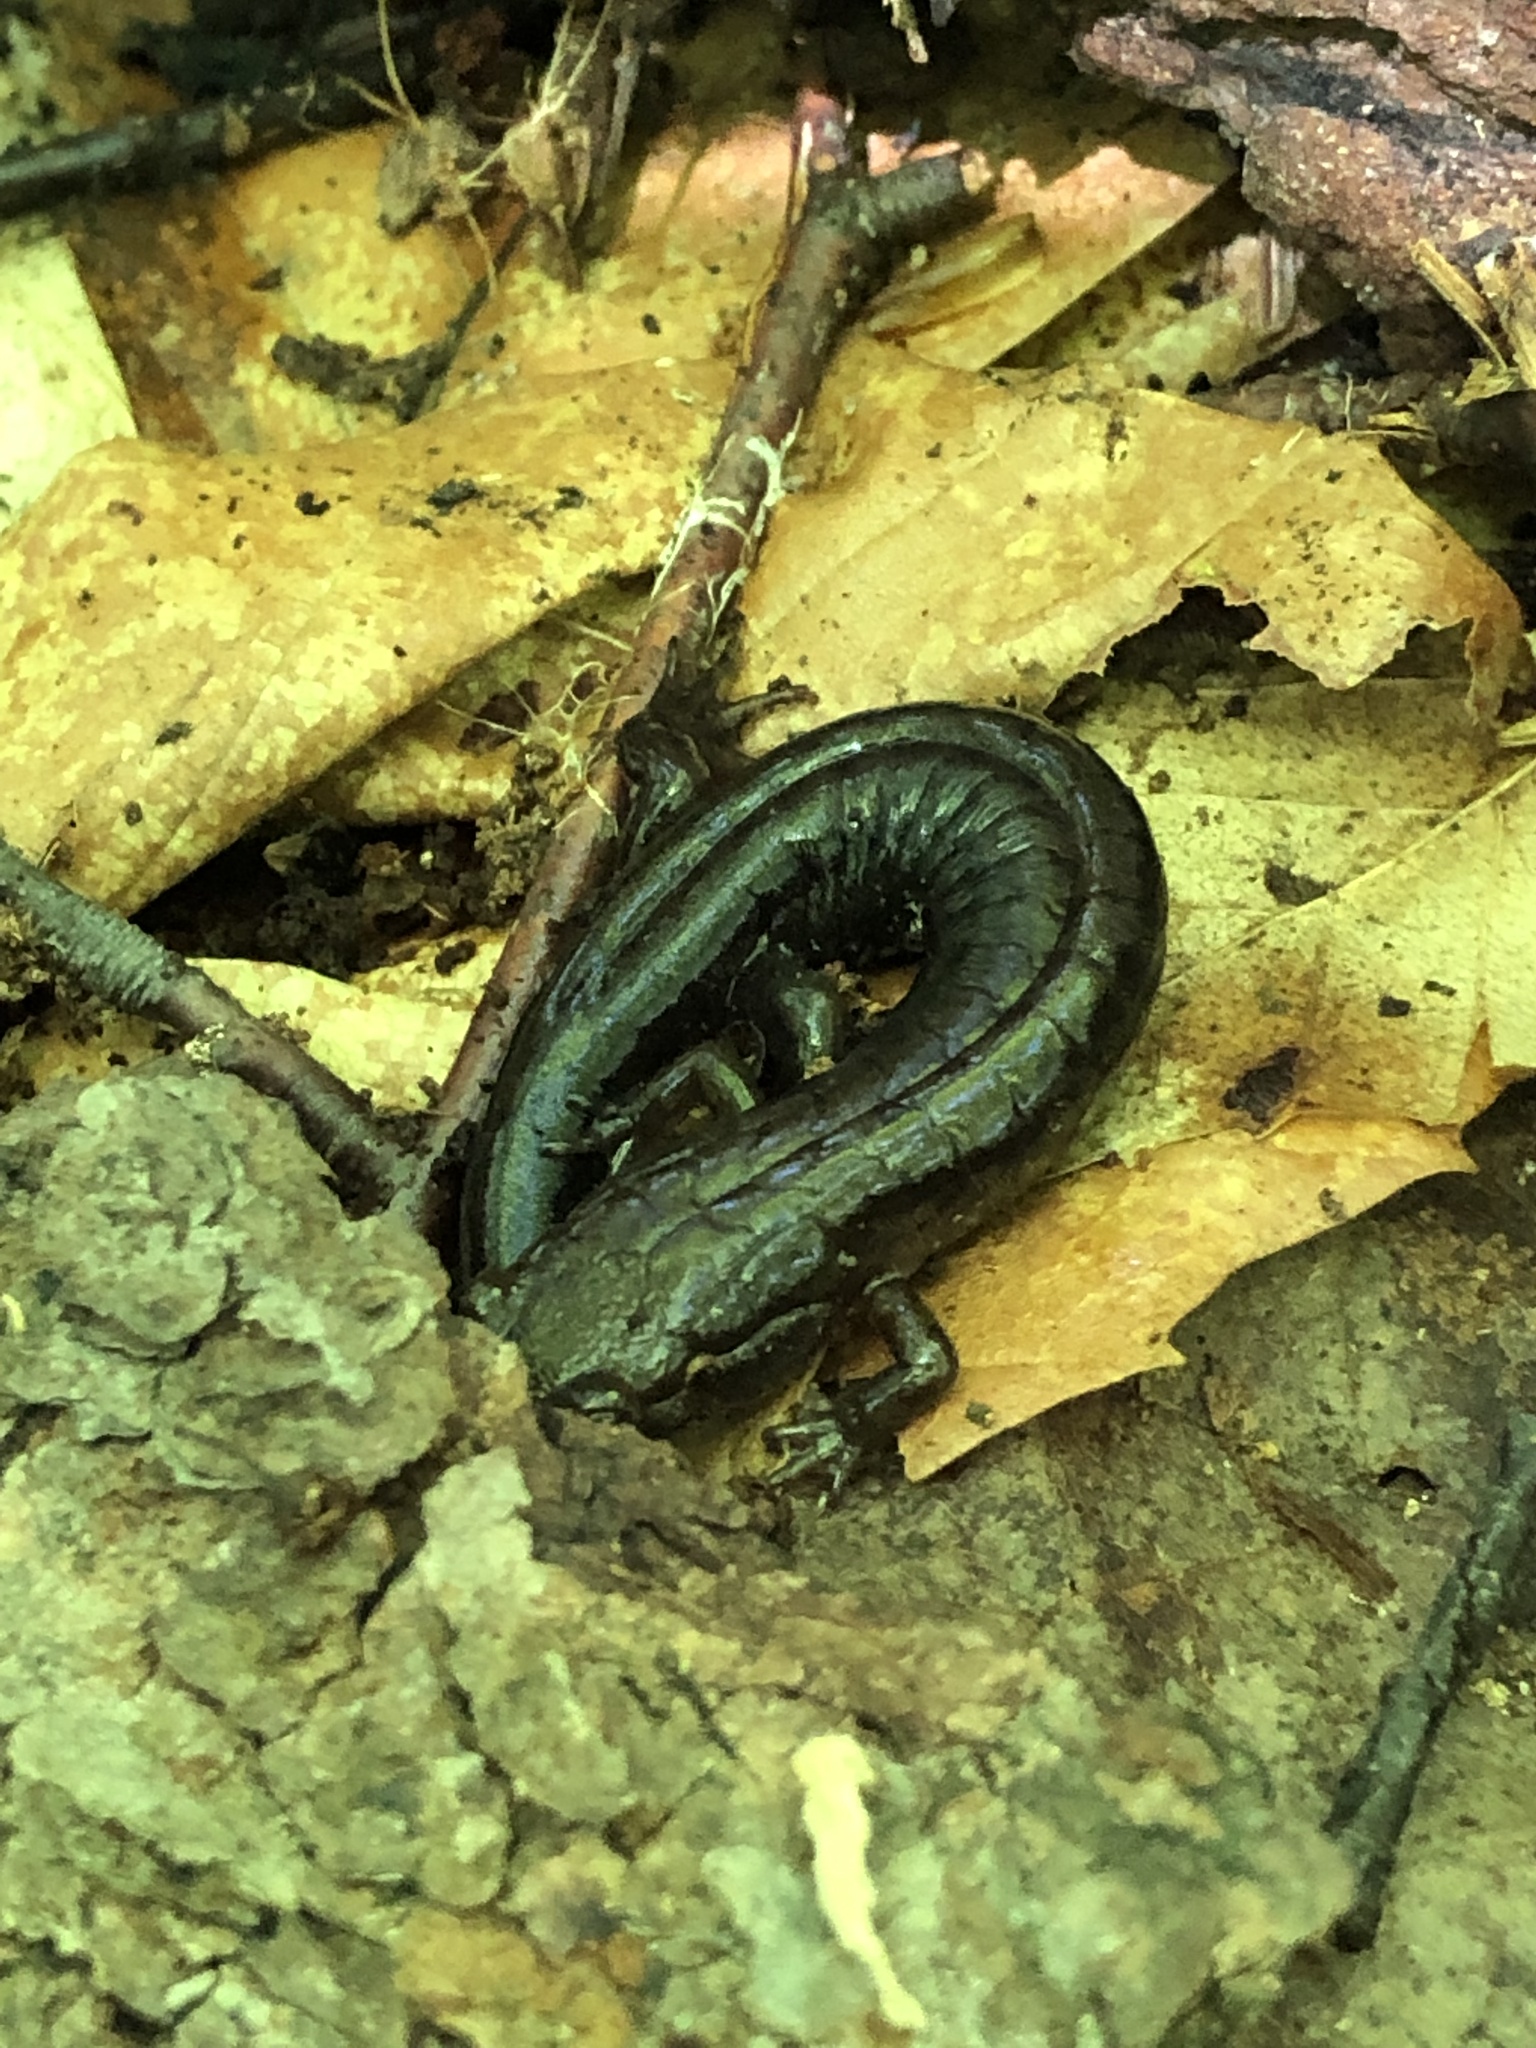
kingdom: Animalia
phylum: Chordata
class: Amphibia
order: Caudata
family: Plethodontidae
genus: Desmognathus
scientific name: Desmognathus ochrophaeus
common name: Allegheny mountain dusky salamander
